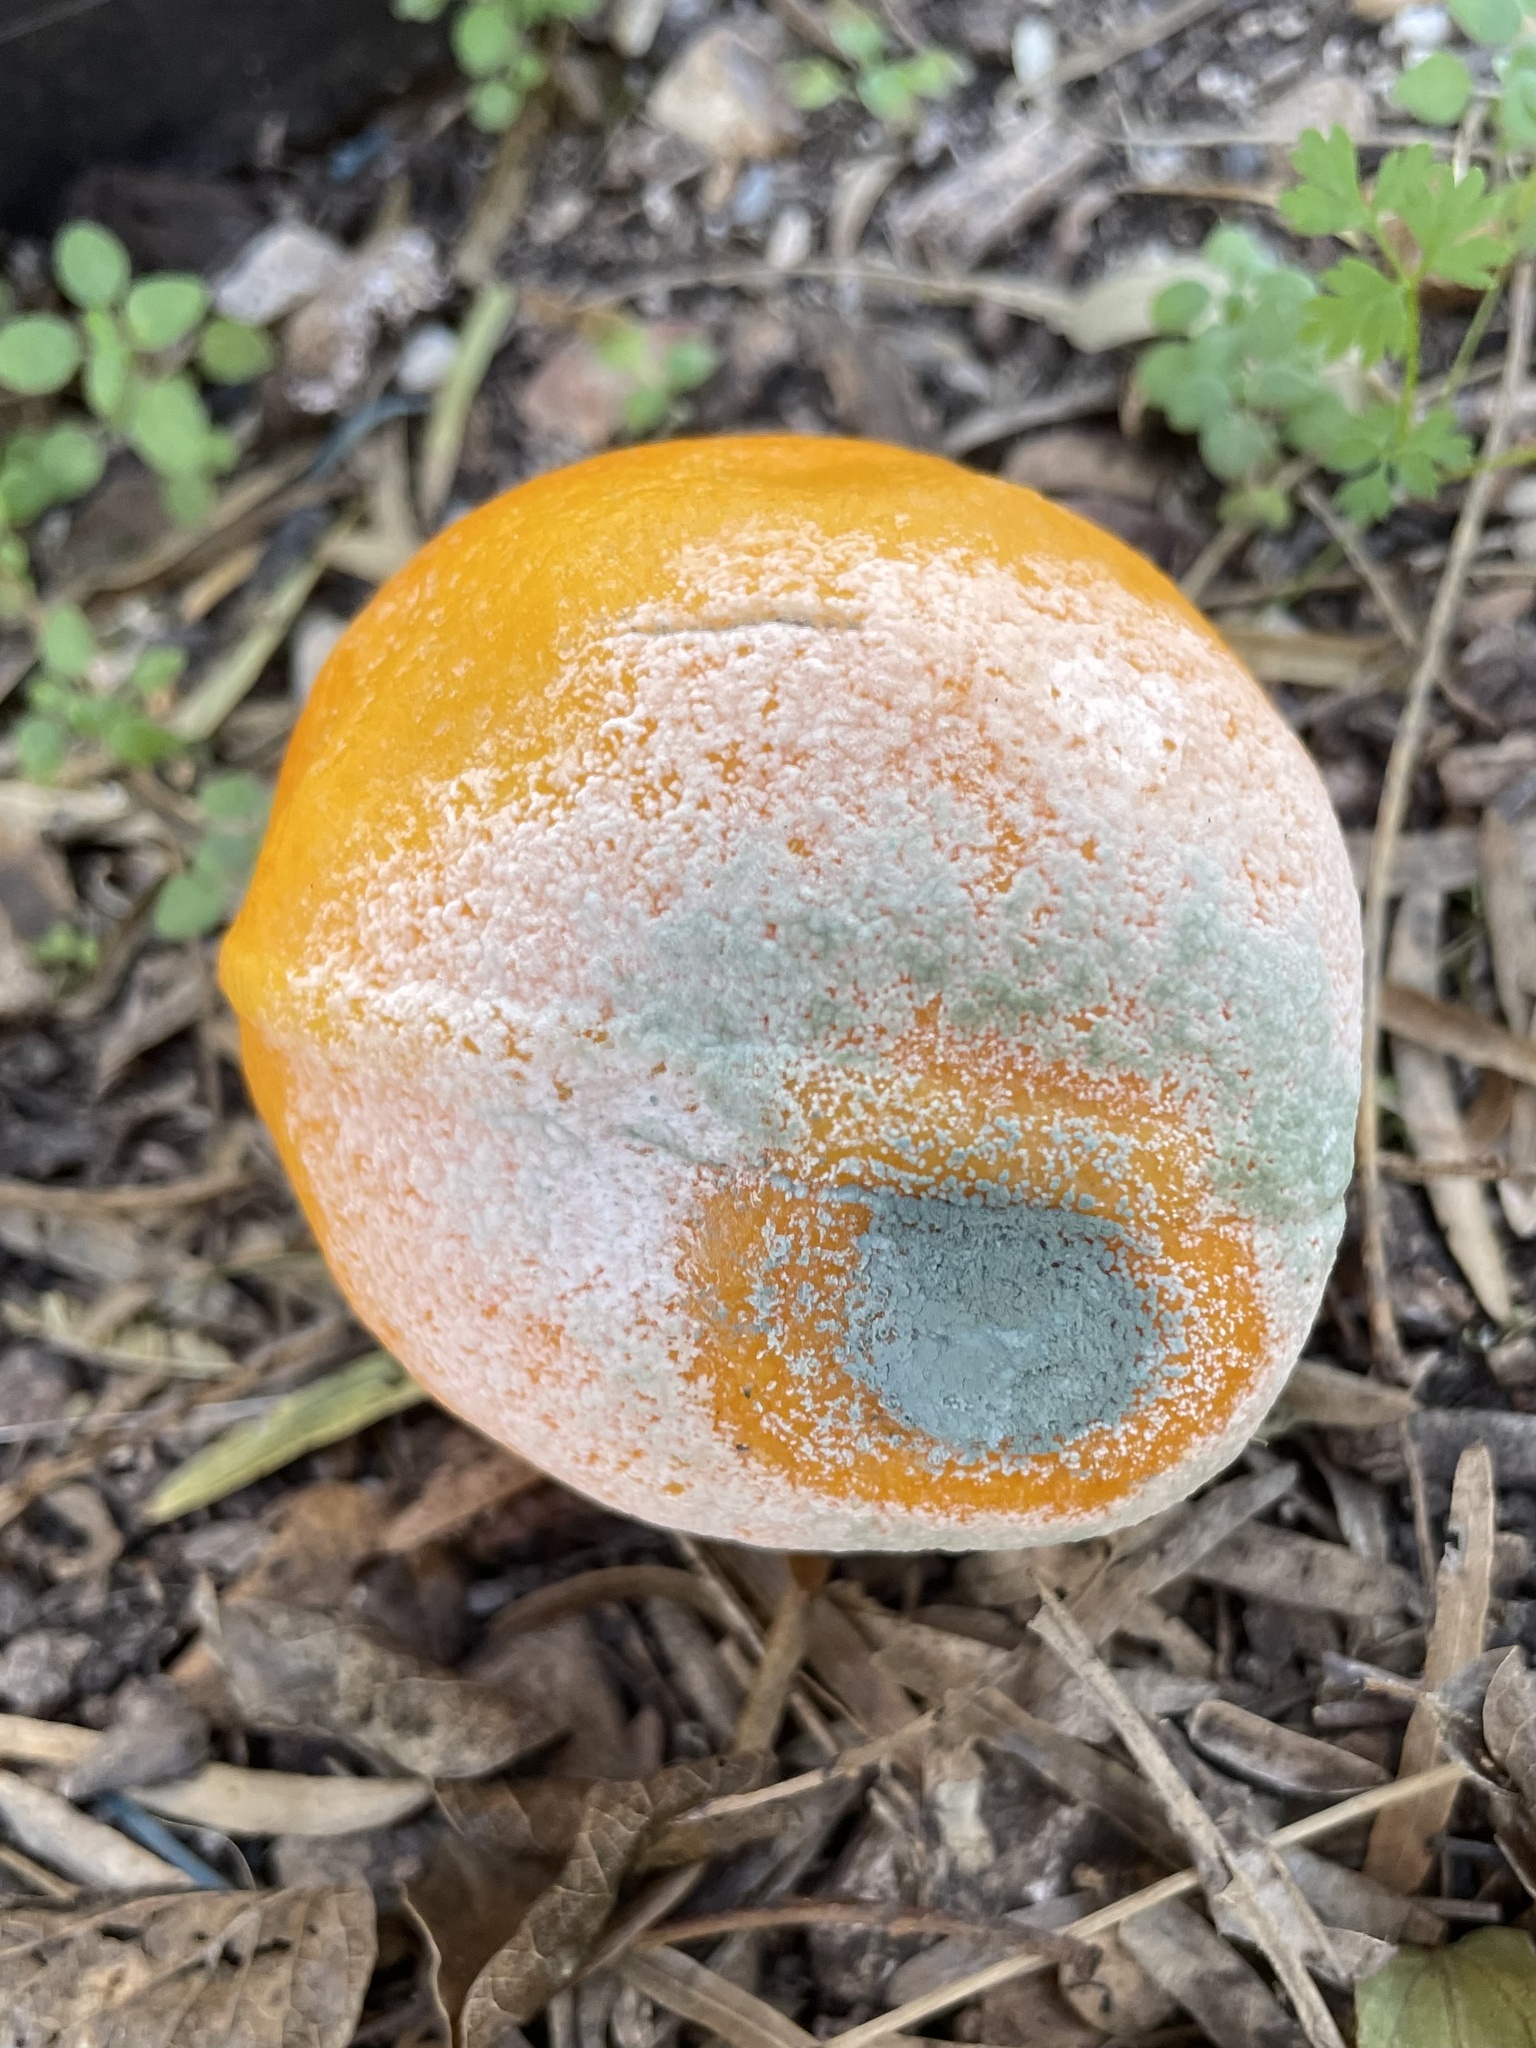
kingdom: Fungi
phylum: Ascomycota
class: Eurotiomycetes
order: Eurotiales
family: Aspergillaceae
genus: Penicillium
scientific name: Penicillium digitatum
